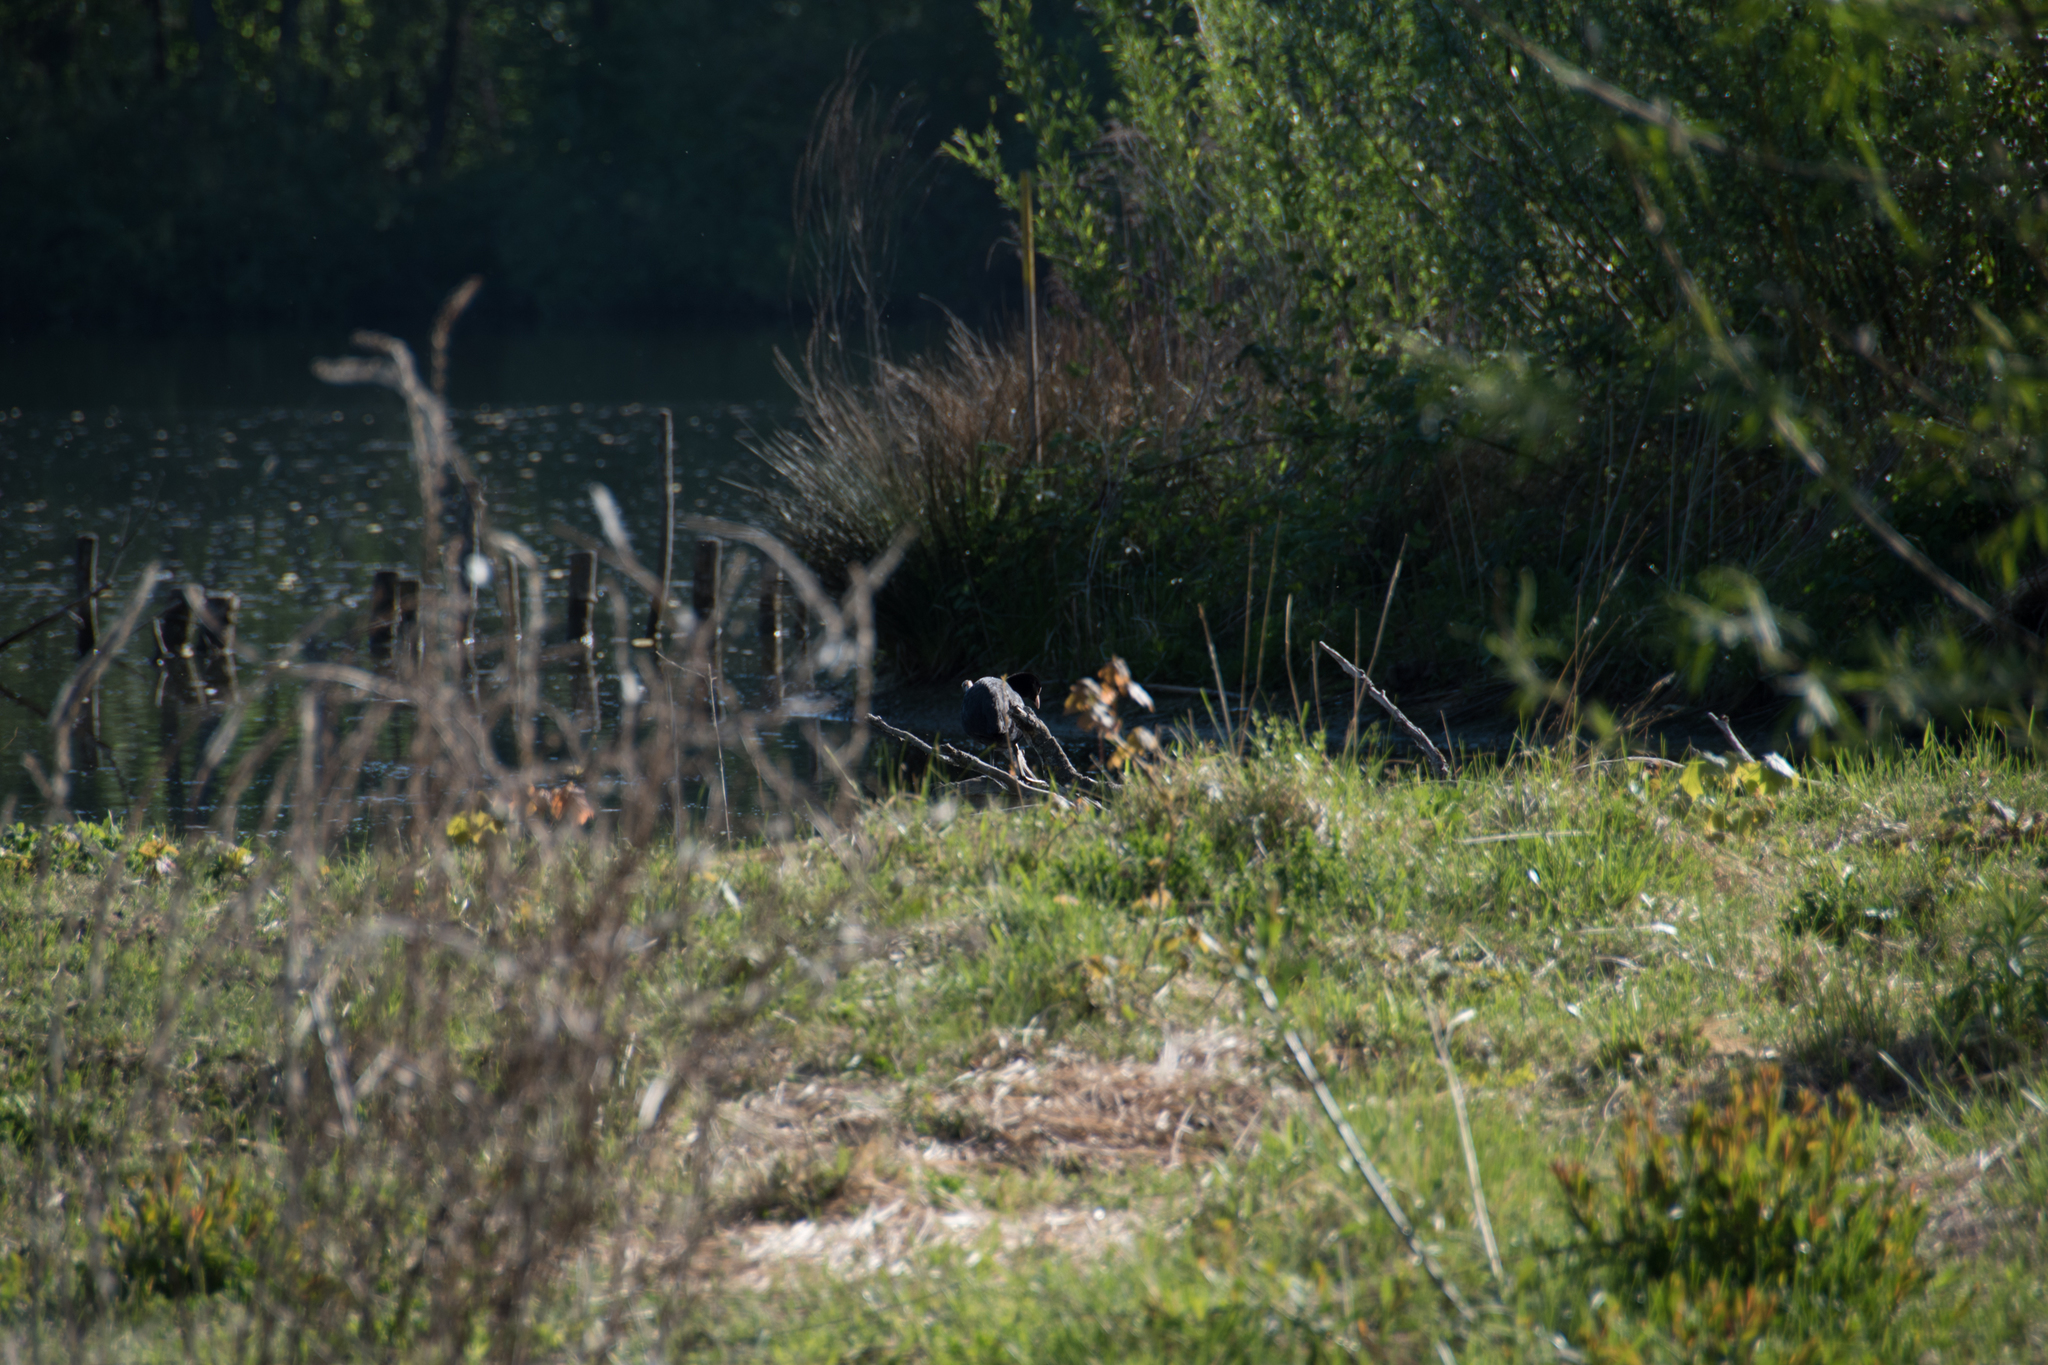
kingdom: Animalia
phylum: Chordata
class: Aves
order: Gruiformes
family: Rallidae
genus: Fulica
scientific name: Fulica atra
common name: Eurasian coot
